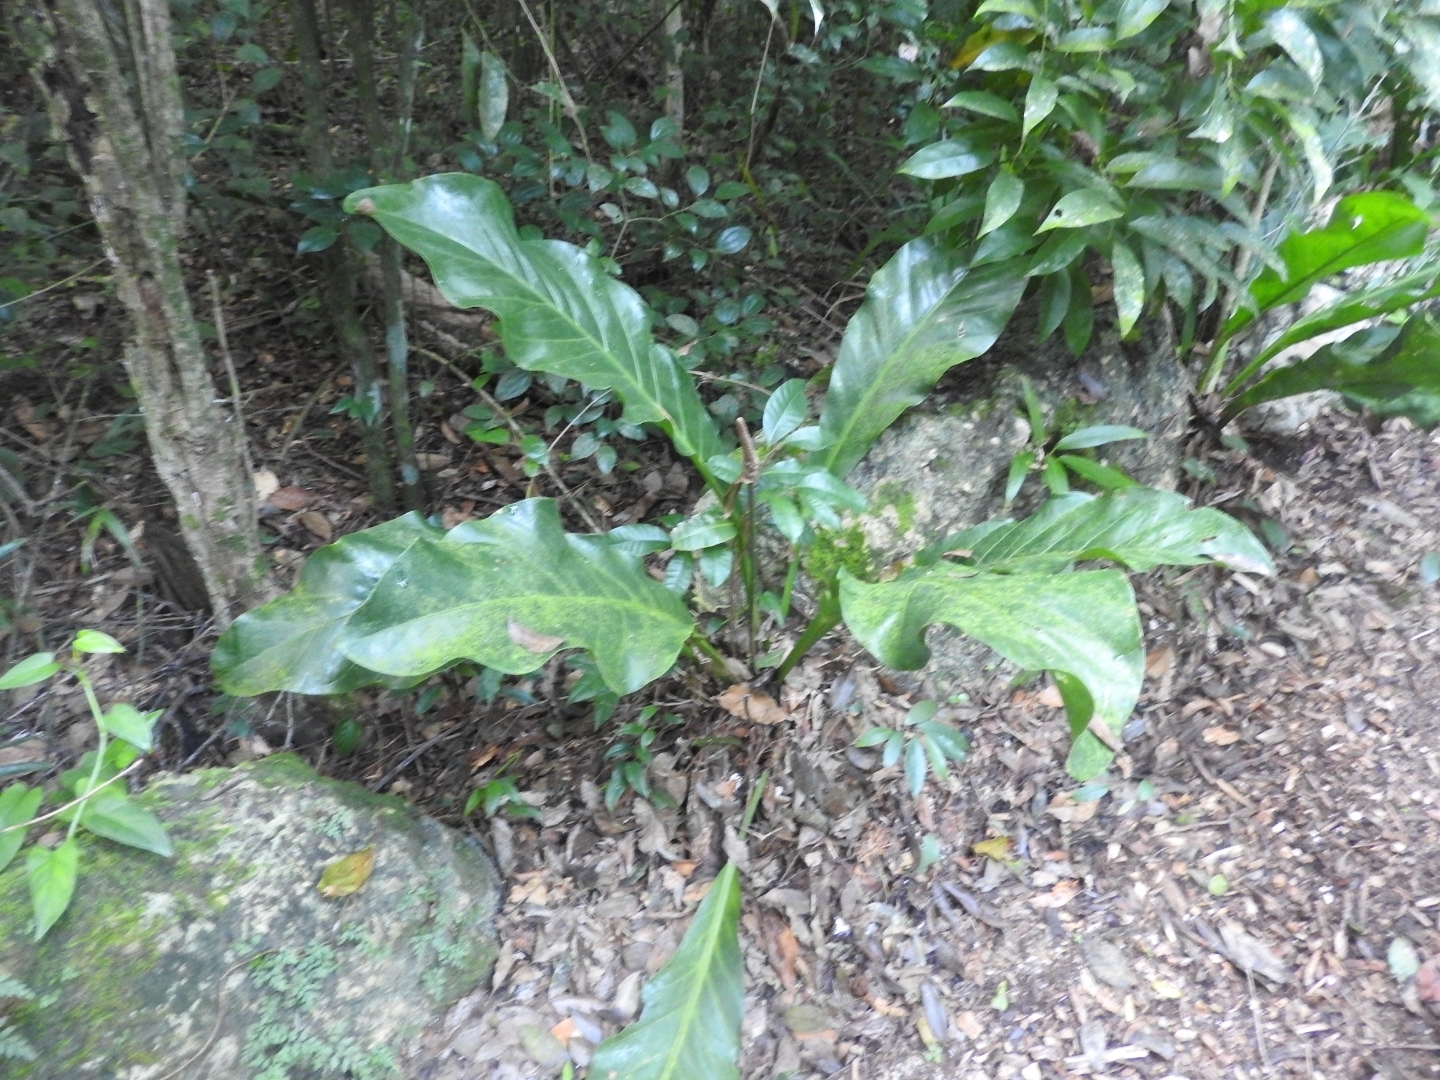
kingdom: Plantae
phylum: Tracheophyta
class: Liliopsida
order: Alismatales
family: Araceae
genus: Anthurium
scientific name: Anthurium schlechtendalii
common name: Laceleaf
